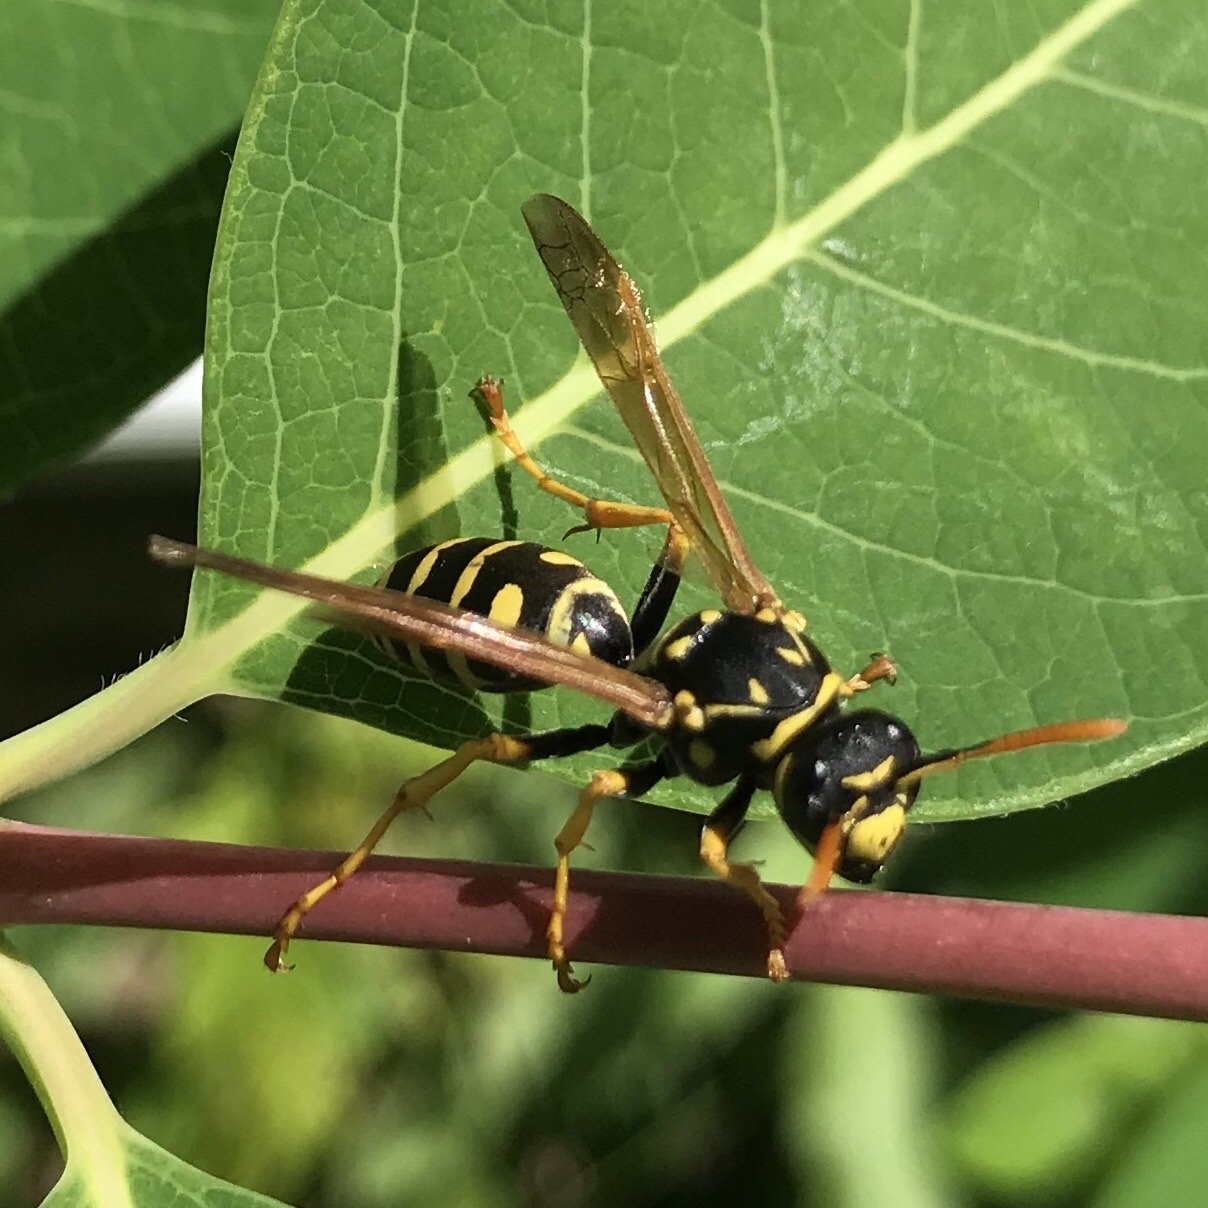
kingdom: Animalia
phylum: Arthropoda
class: Insecta
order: Hymenoptera
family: Eumenidae
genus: Polistes
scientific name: Polistes dominula
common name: Paper wasp
